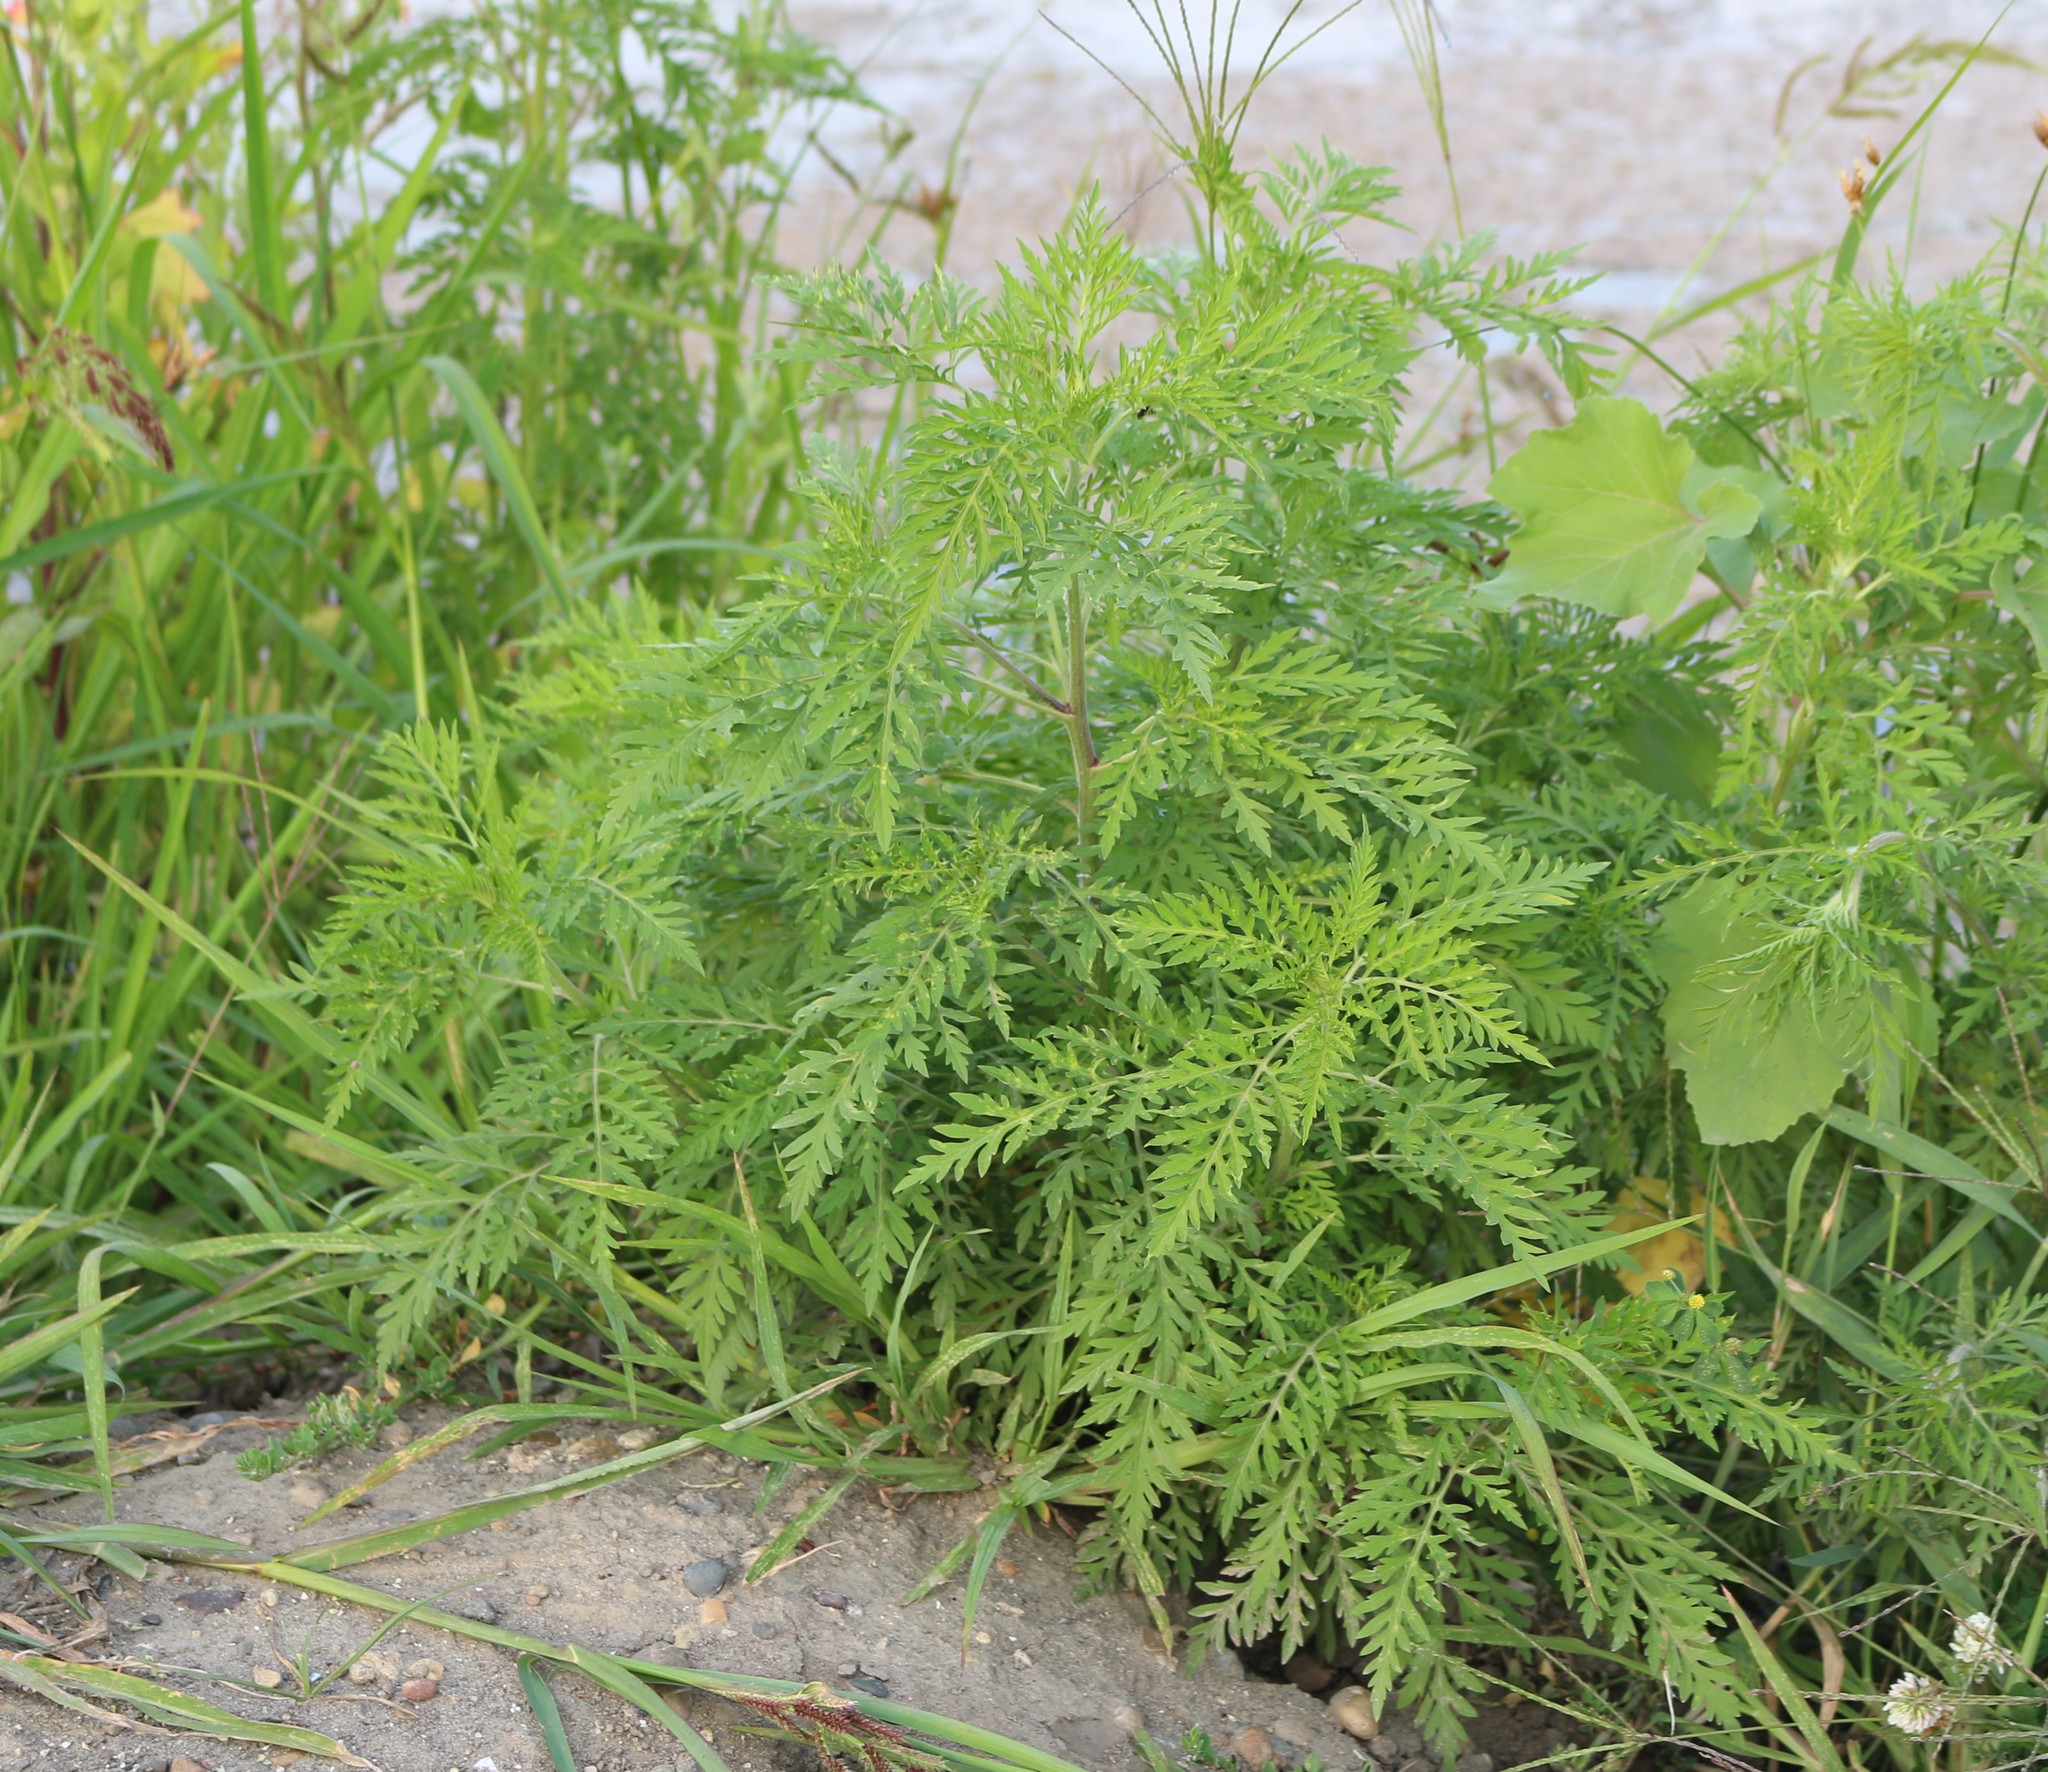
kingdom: Plantae
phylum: Tracheophyta
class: Magnoliopsida
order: Asterales
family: Asteraceae
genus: Ambrosia
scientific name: Ambrosia artemisiifolia
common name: Annual ragweed
